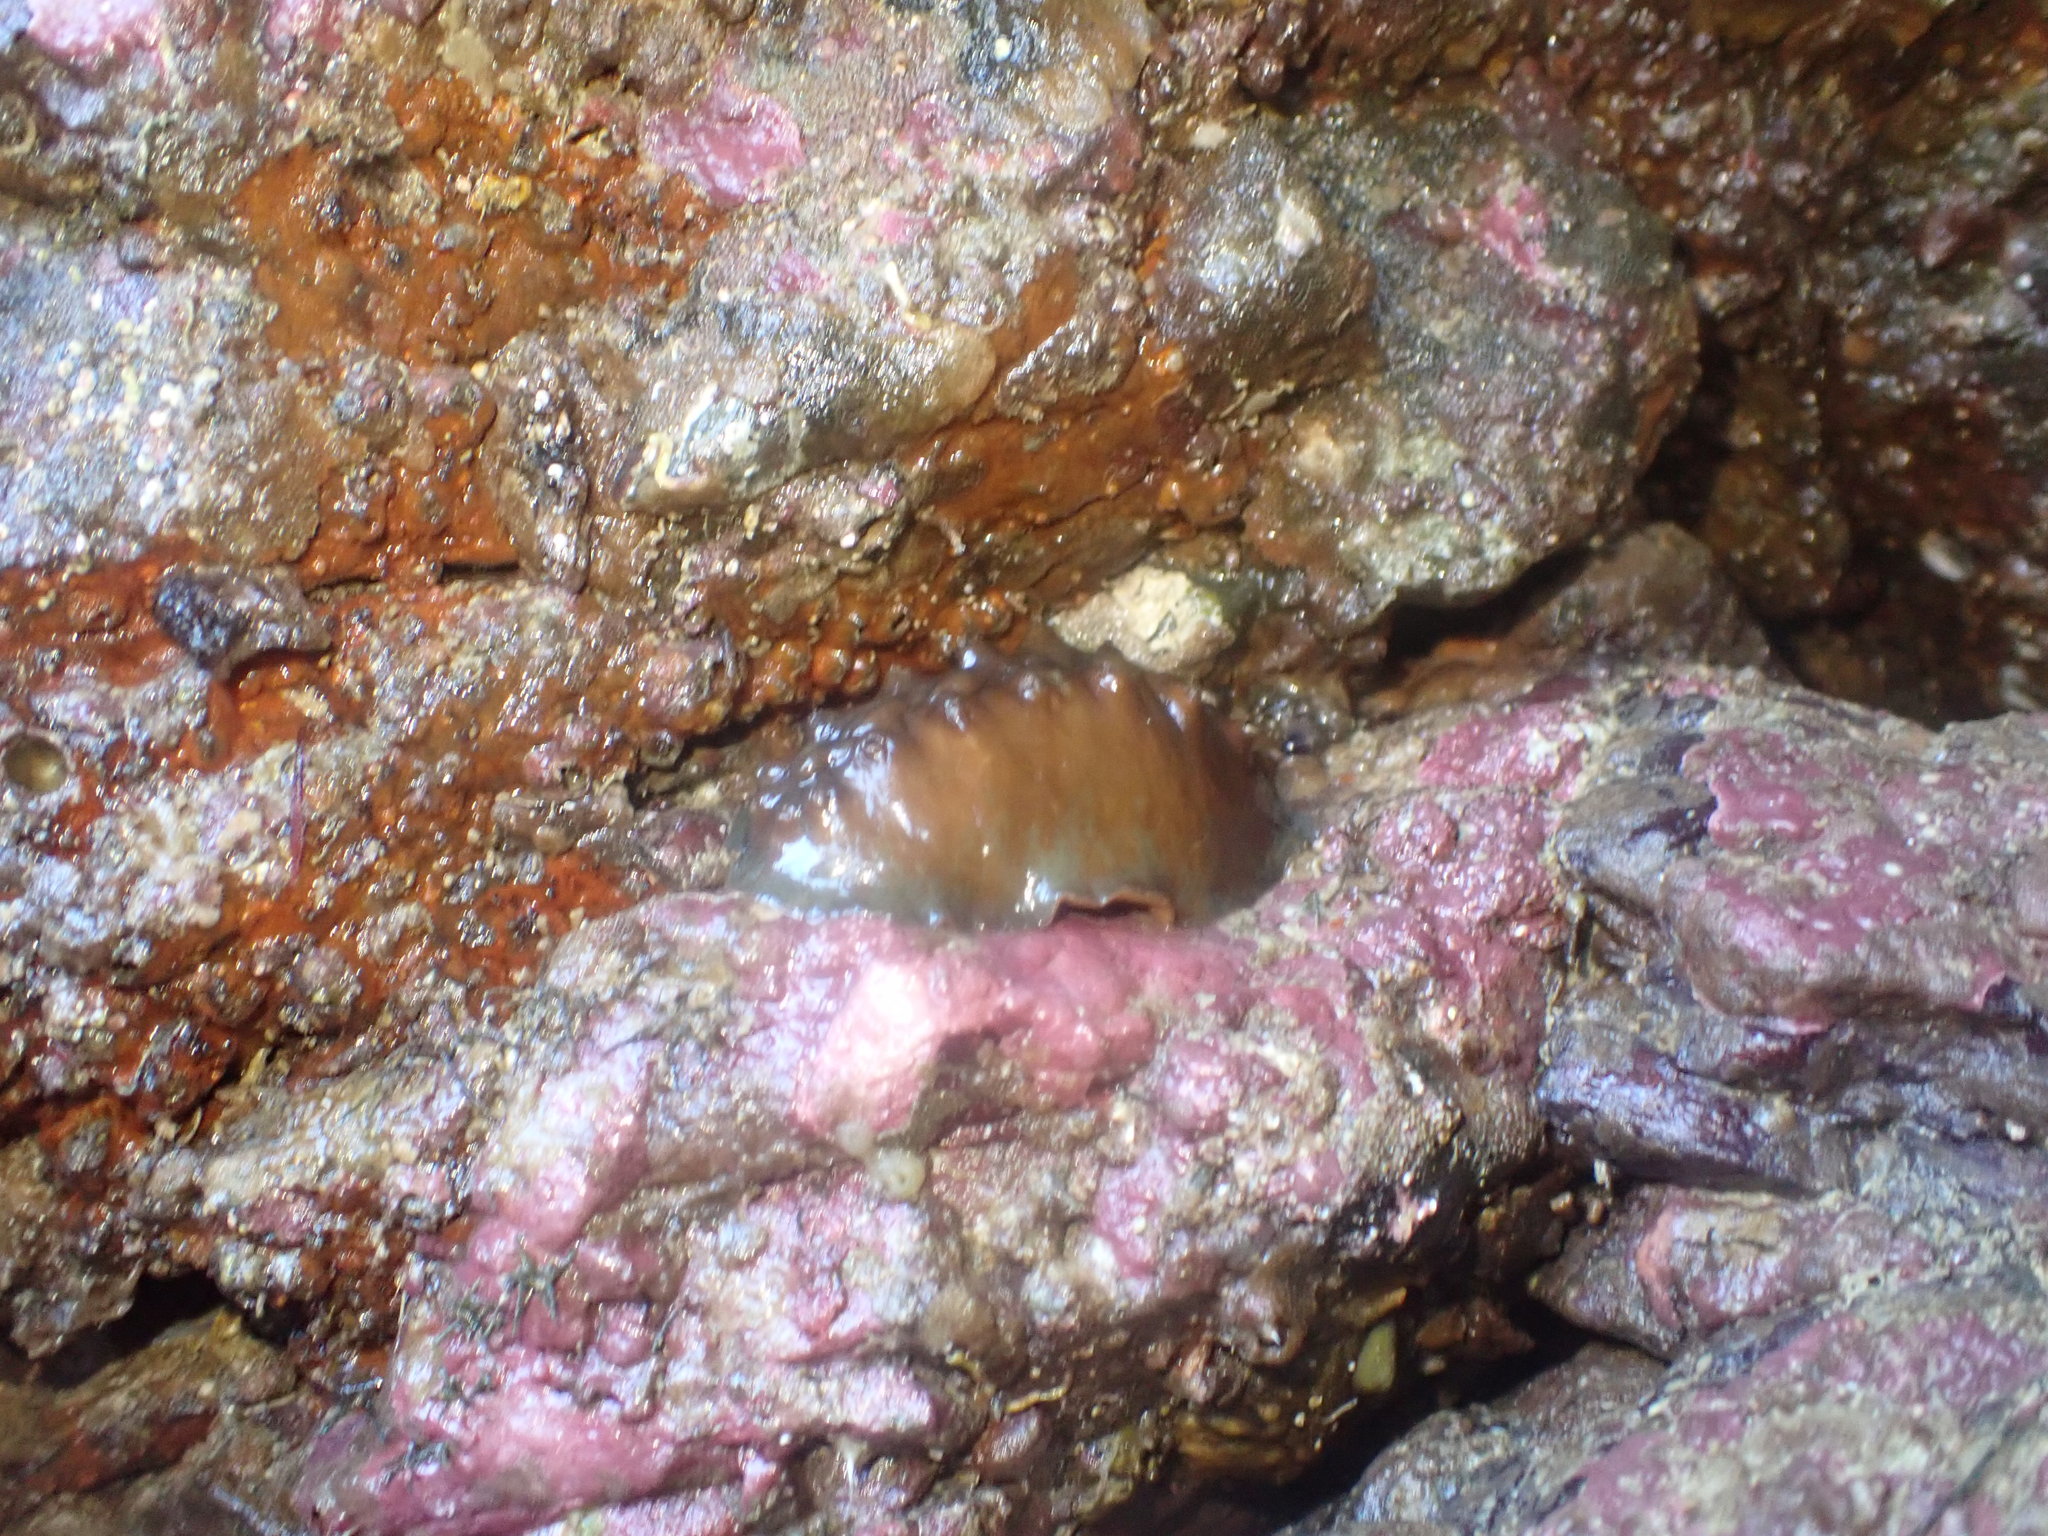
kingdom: Animalia
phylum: Mollusca
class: Polyplacophora
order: Chitonida
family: Acanthochitonidae
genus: Cryptoconchus
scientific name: Cryptoconchus porosus
